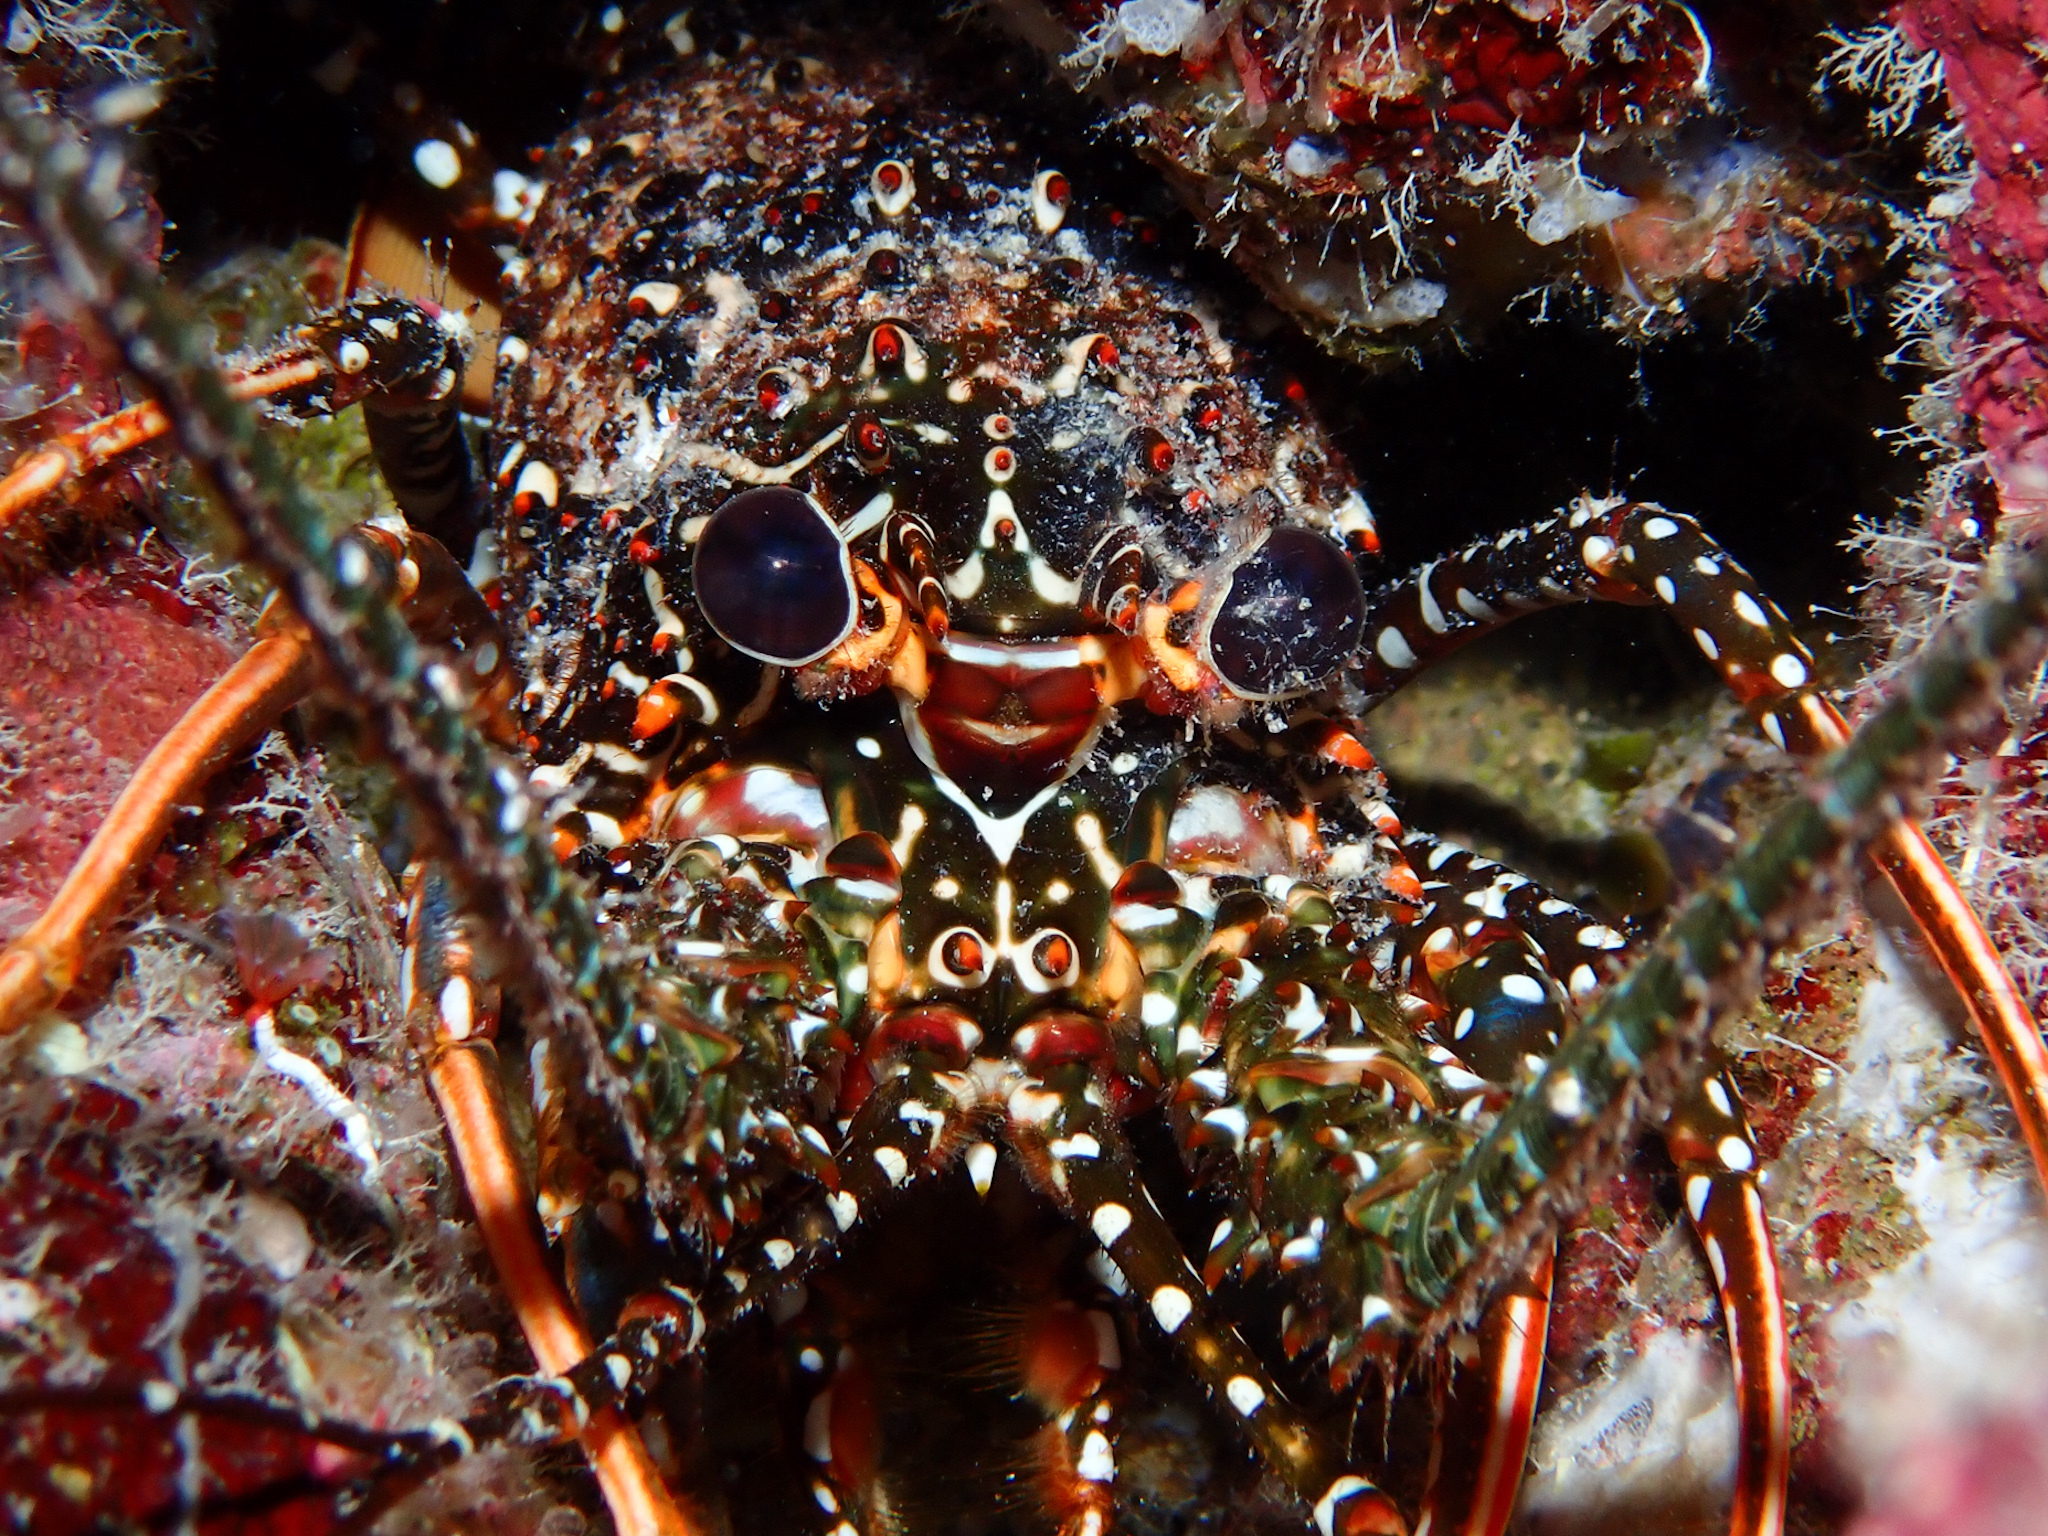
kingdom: Animalia
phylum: Arthropoda
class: Malacostraca
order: Decapoda
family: Palinuridae
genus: Panulirus
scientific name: Panulirus guttatus
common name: Spotted spiny lobster
